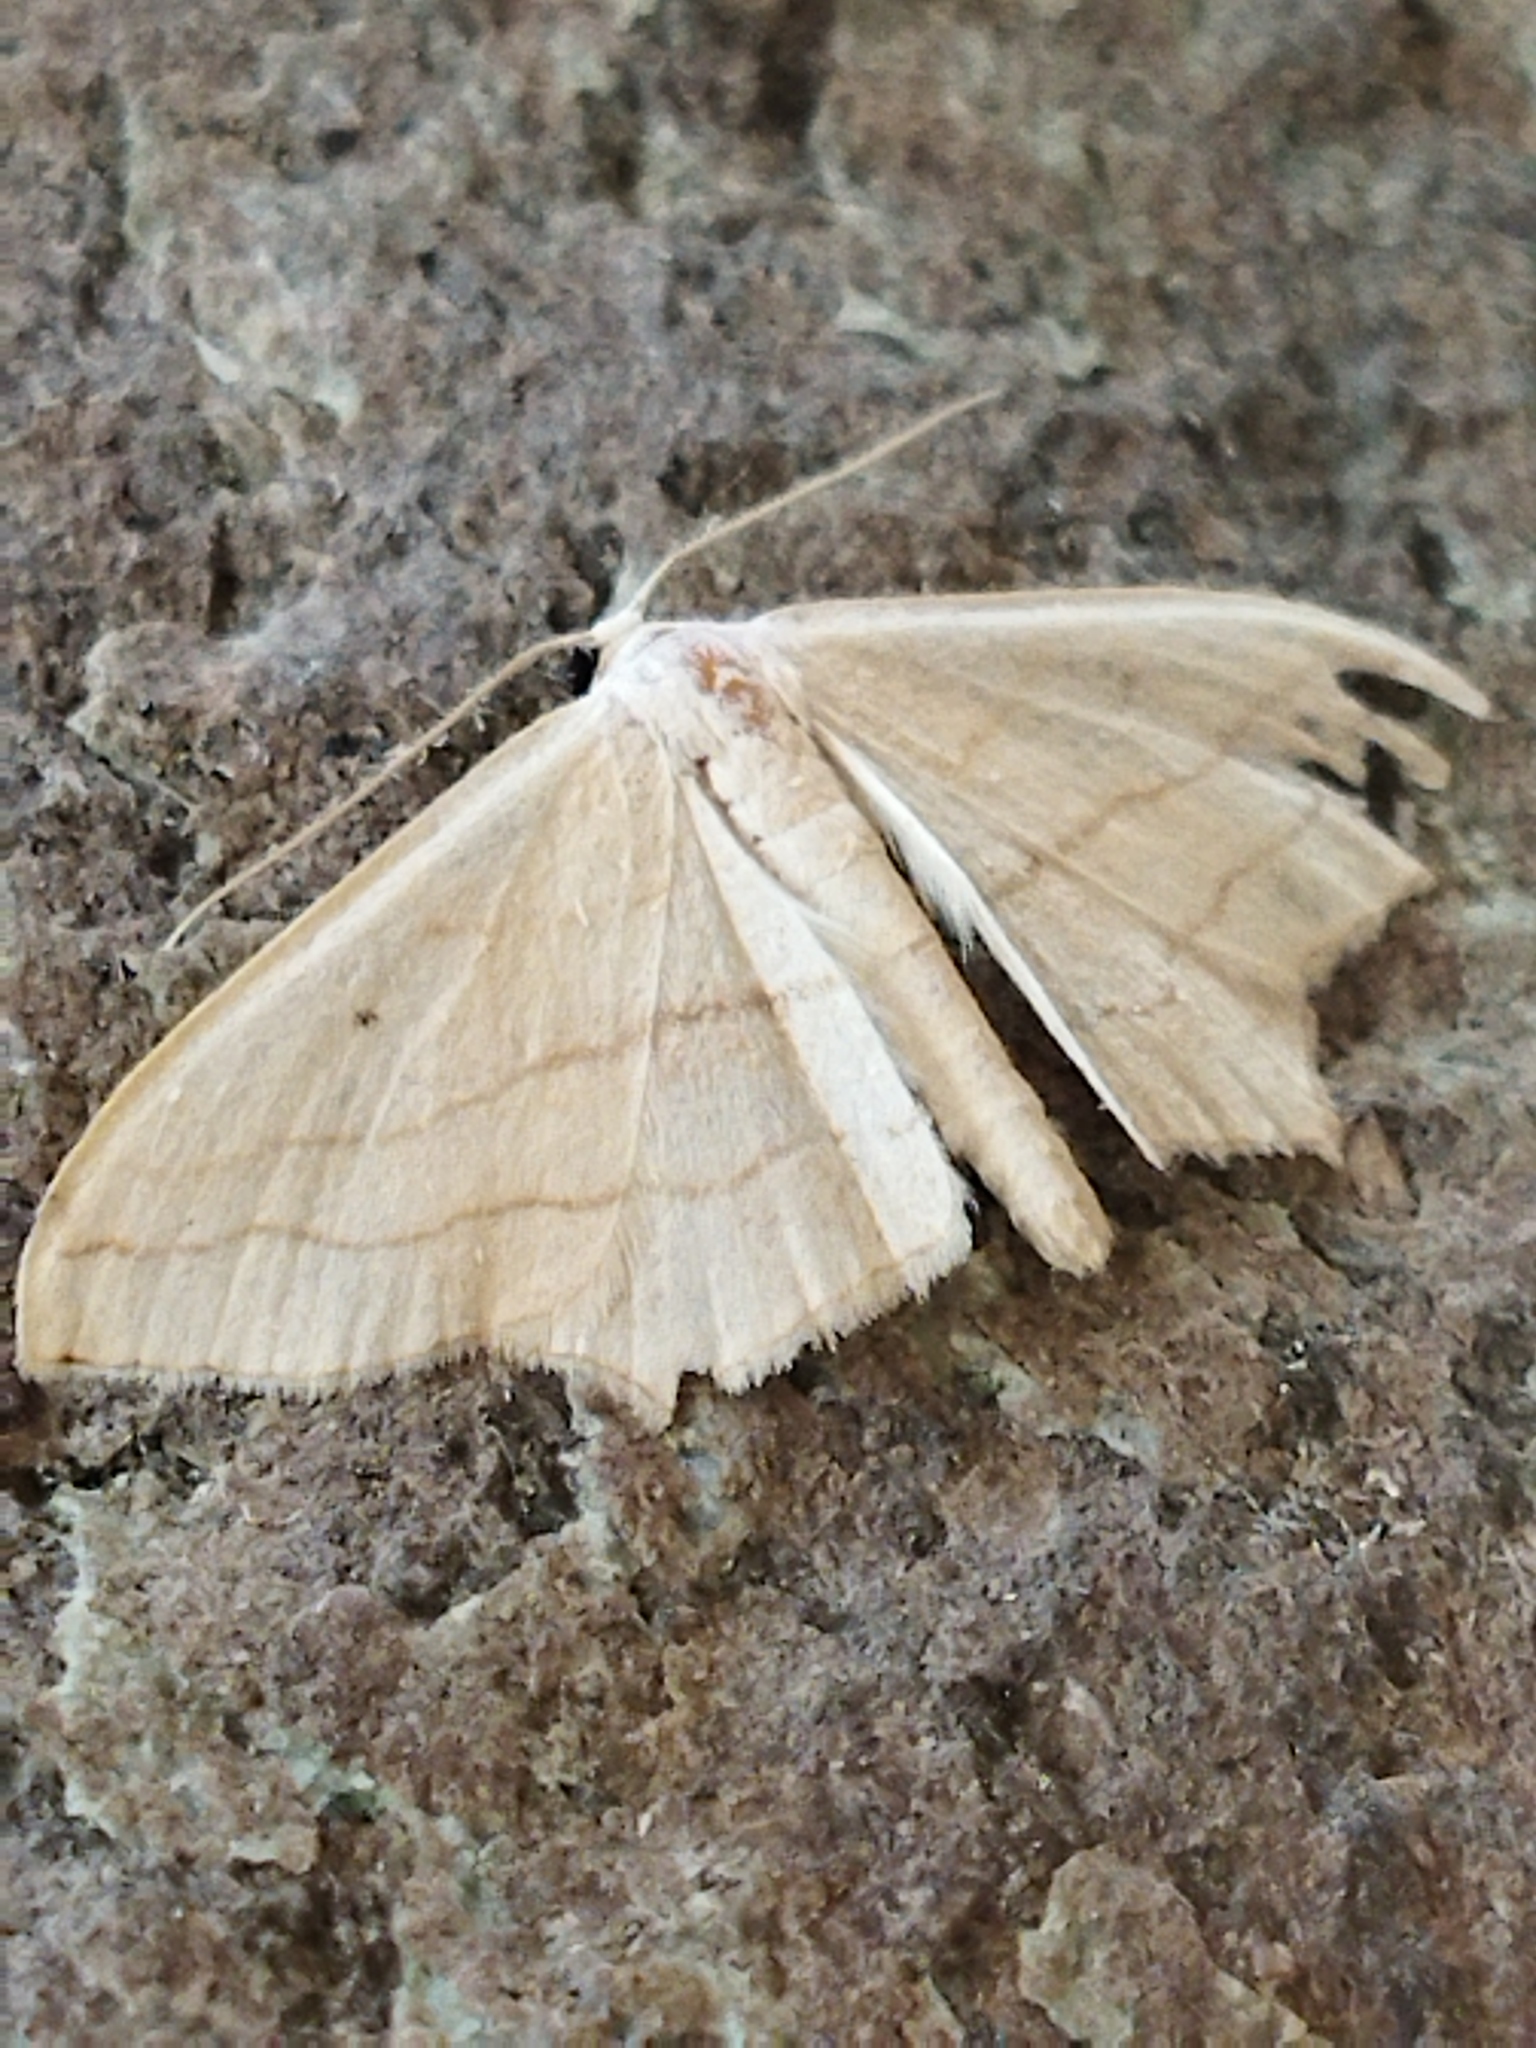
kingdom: Animalia
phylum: Arthropoda
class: Insecta
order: Lepidoptera
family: Geometridae
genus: Scopula
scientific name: Scopula imitaria
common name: Small blood-vein
